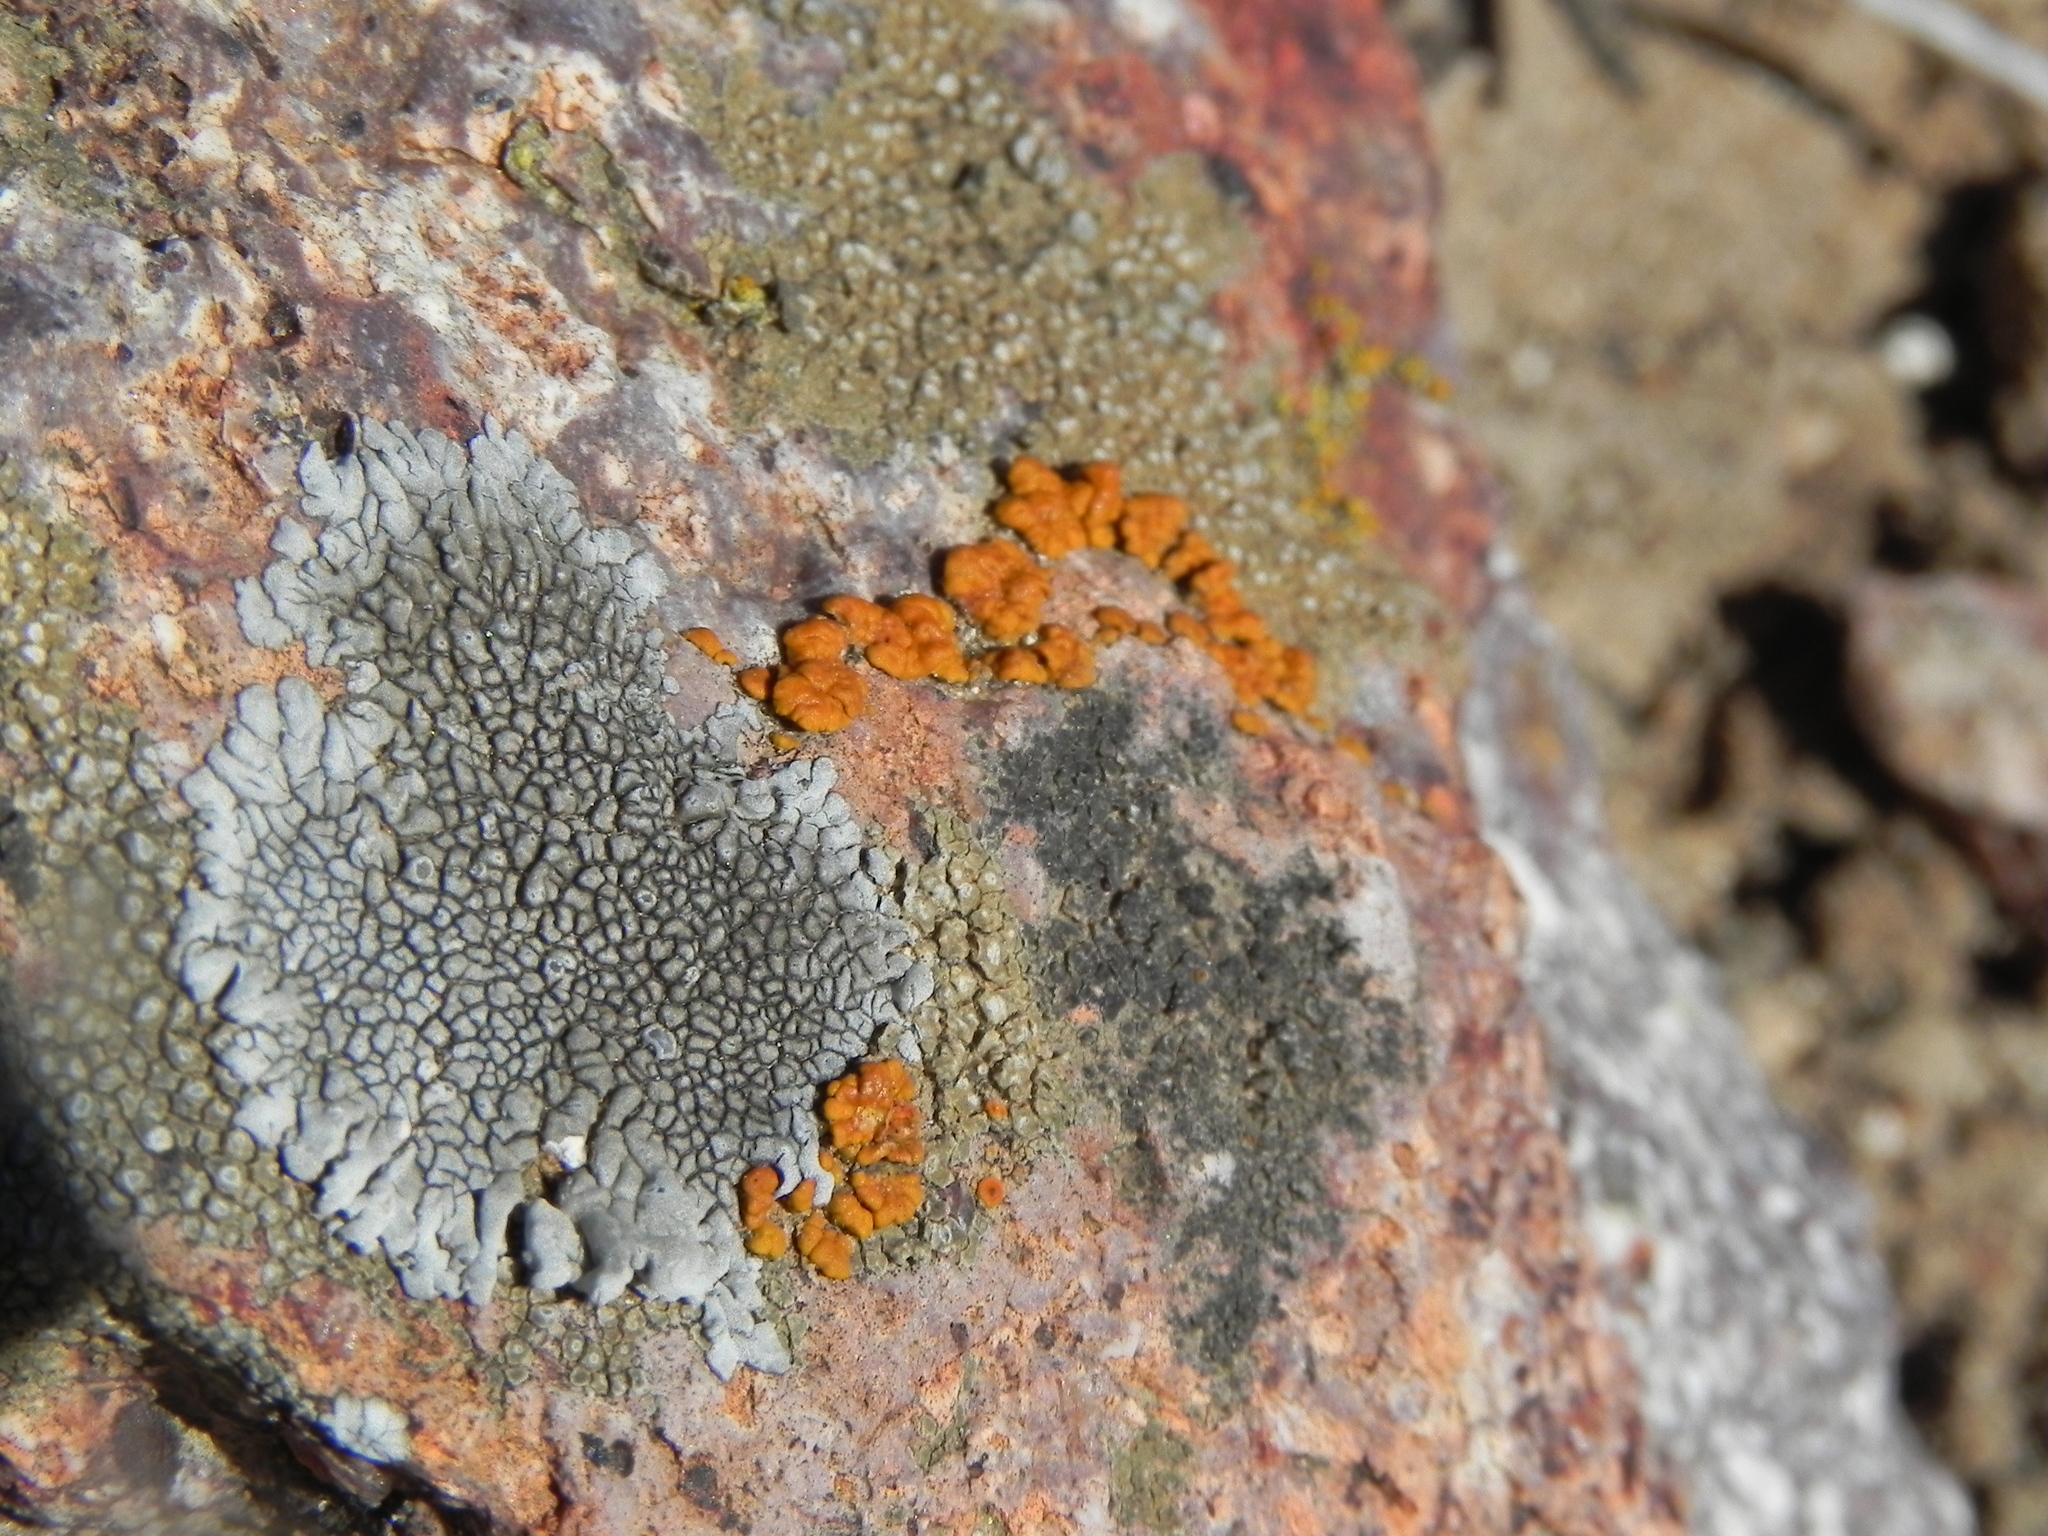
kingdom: Fungi
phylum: Ascomycota
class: Lecanoromycetes
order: Caliciales
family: Caliciaceae
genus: Dimelaena
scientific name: Dimelaena radiata
